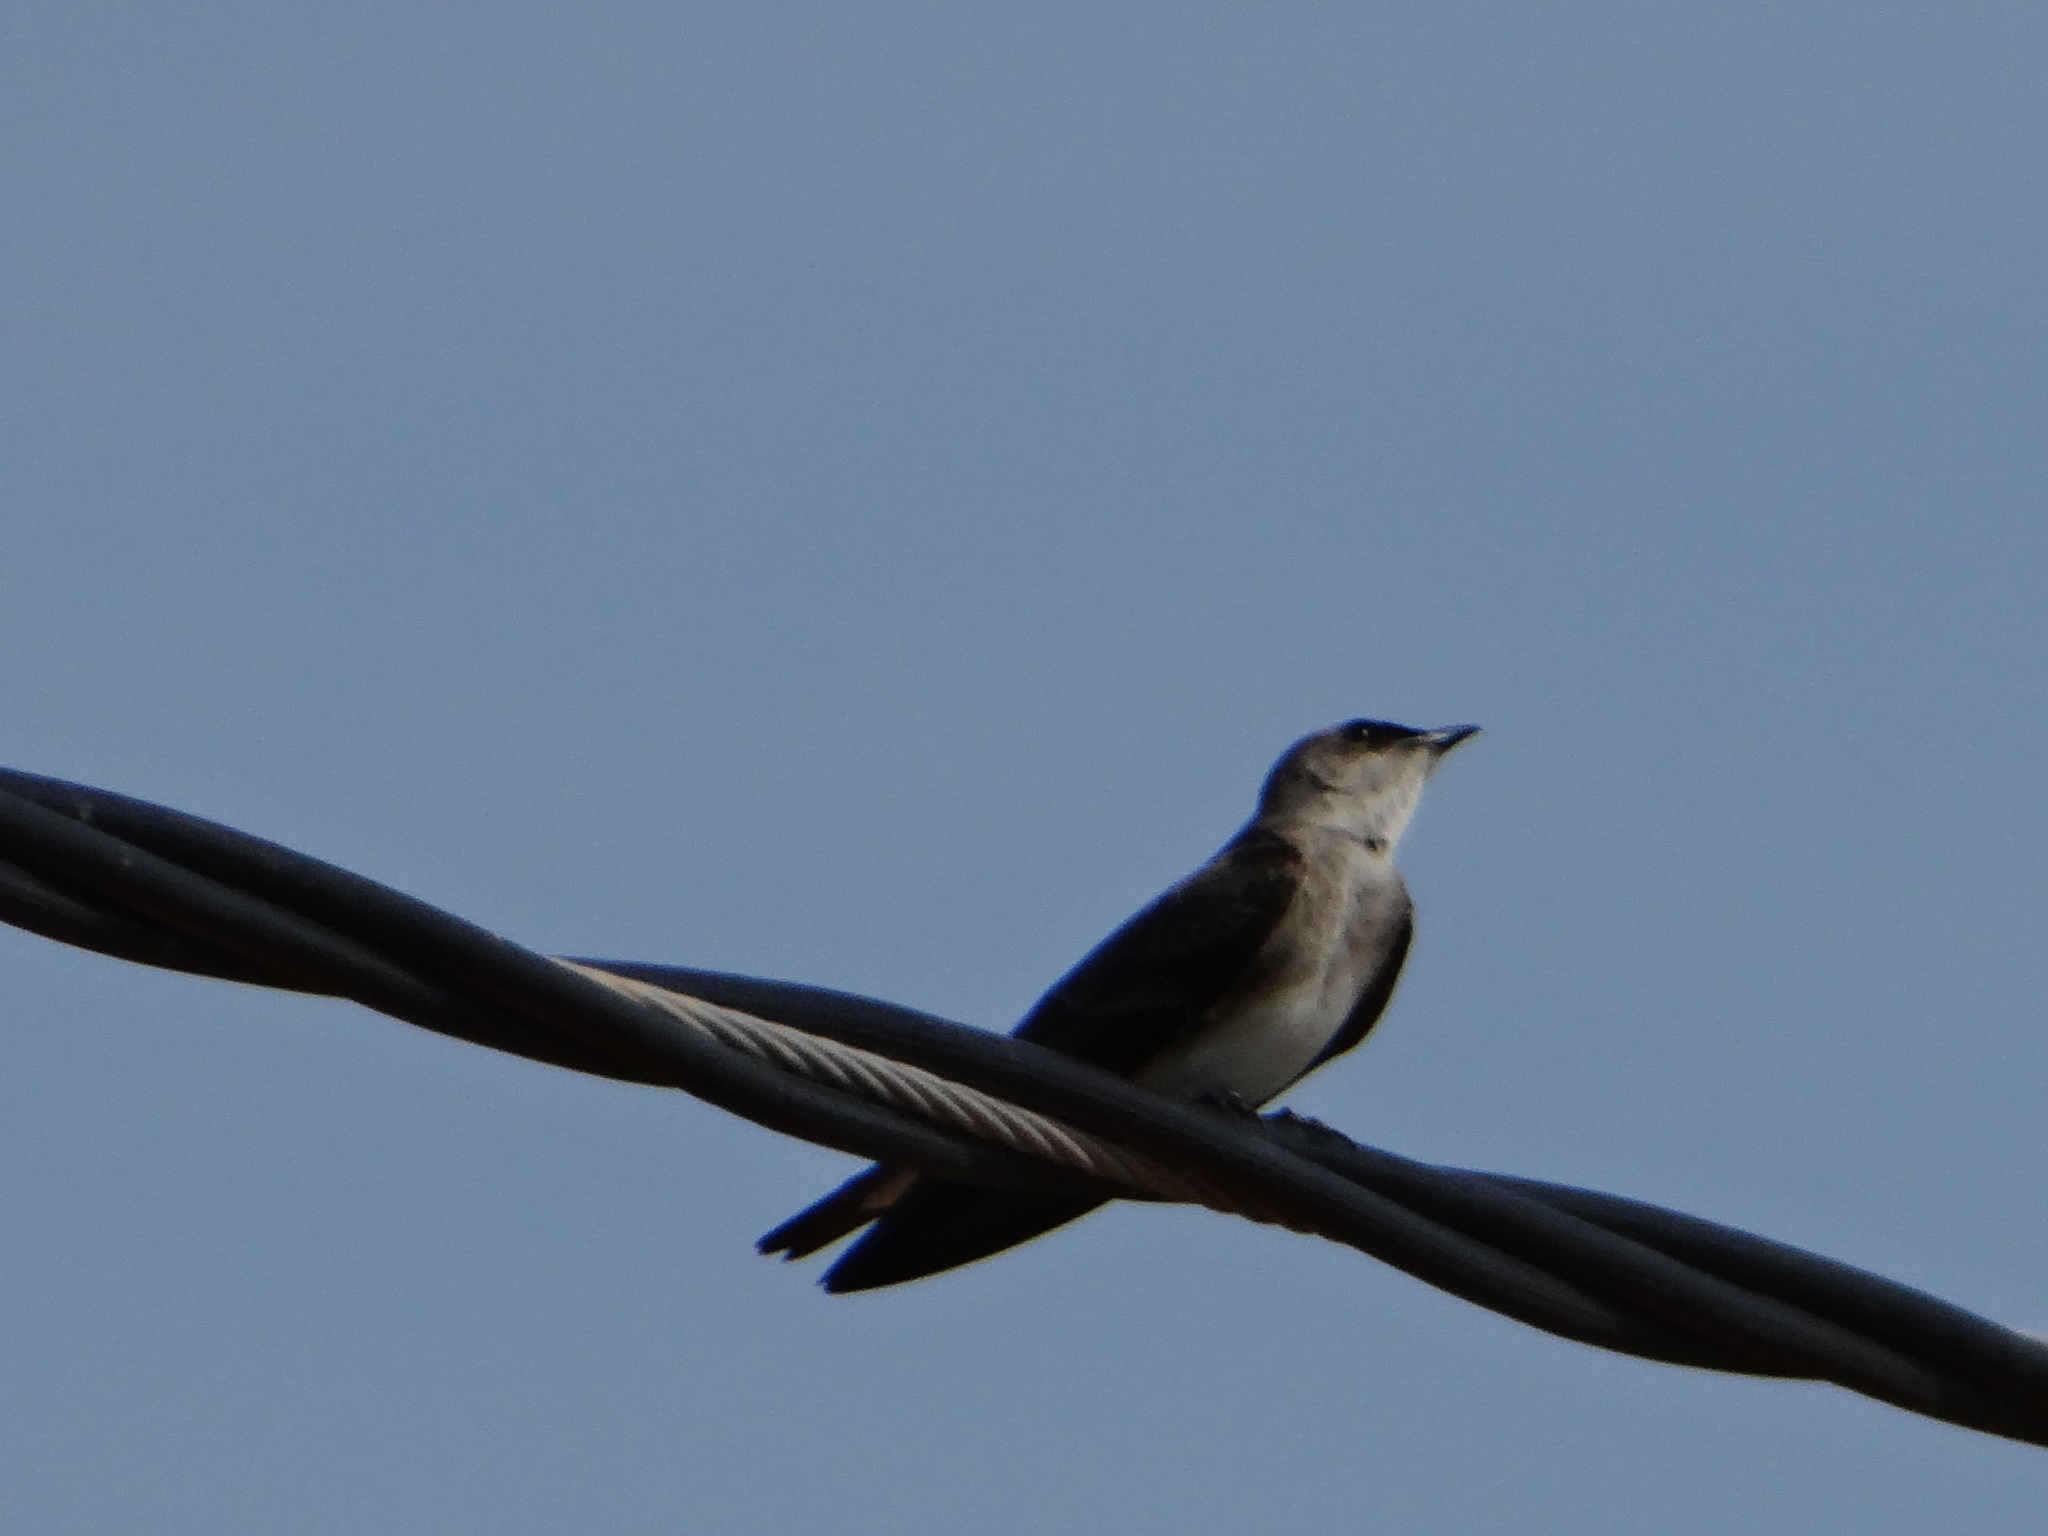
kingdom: Animalia
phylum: Chordata
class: Aves
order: Passeriformes
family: Hirundinidae
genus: Progne
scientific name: Progne tapera
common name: Brown-chested martin
